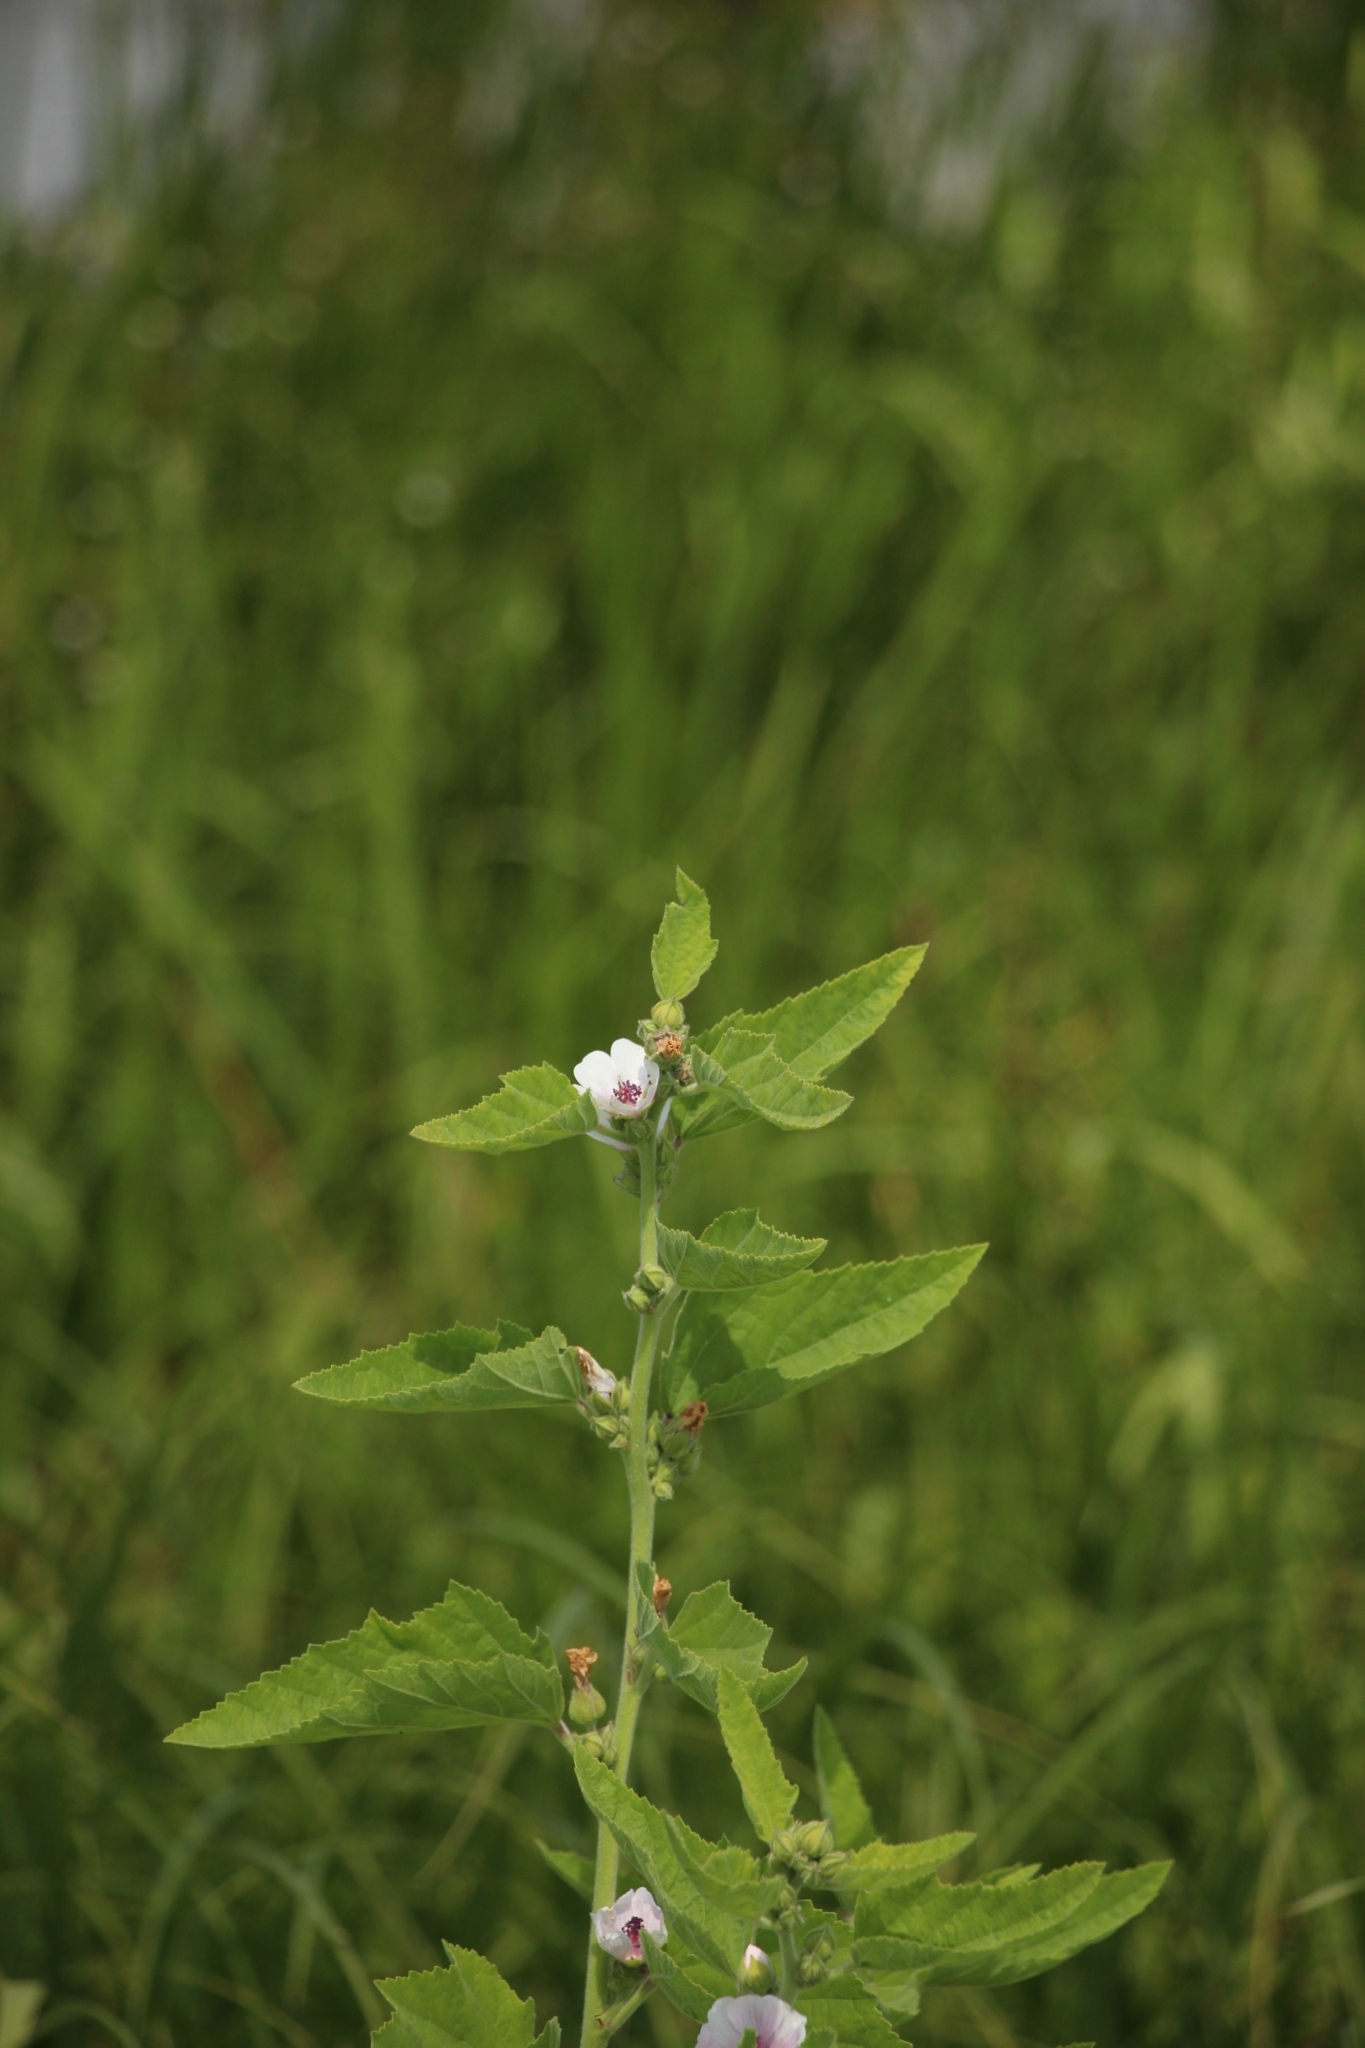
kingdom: Plantae
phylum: Tracheophyta
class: Magnoliopsida
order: Malvales
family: Malvaceae
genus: Althaea
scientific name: Althaea officinalis
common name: Marsh-mallow
